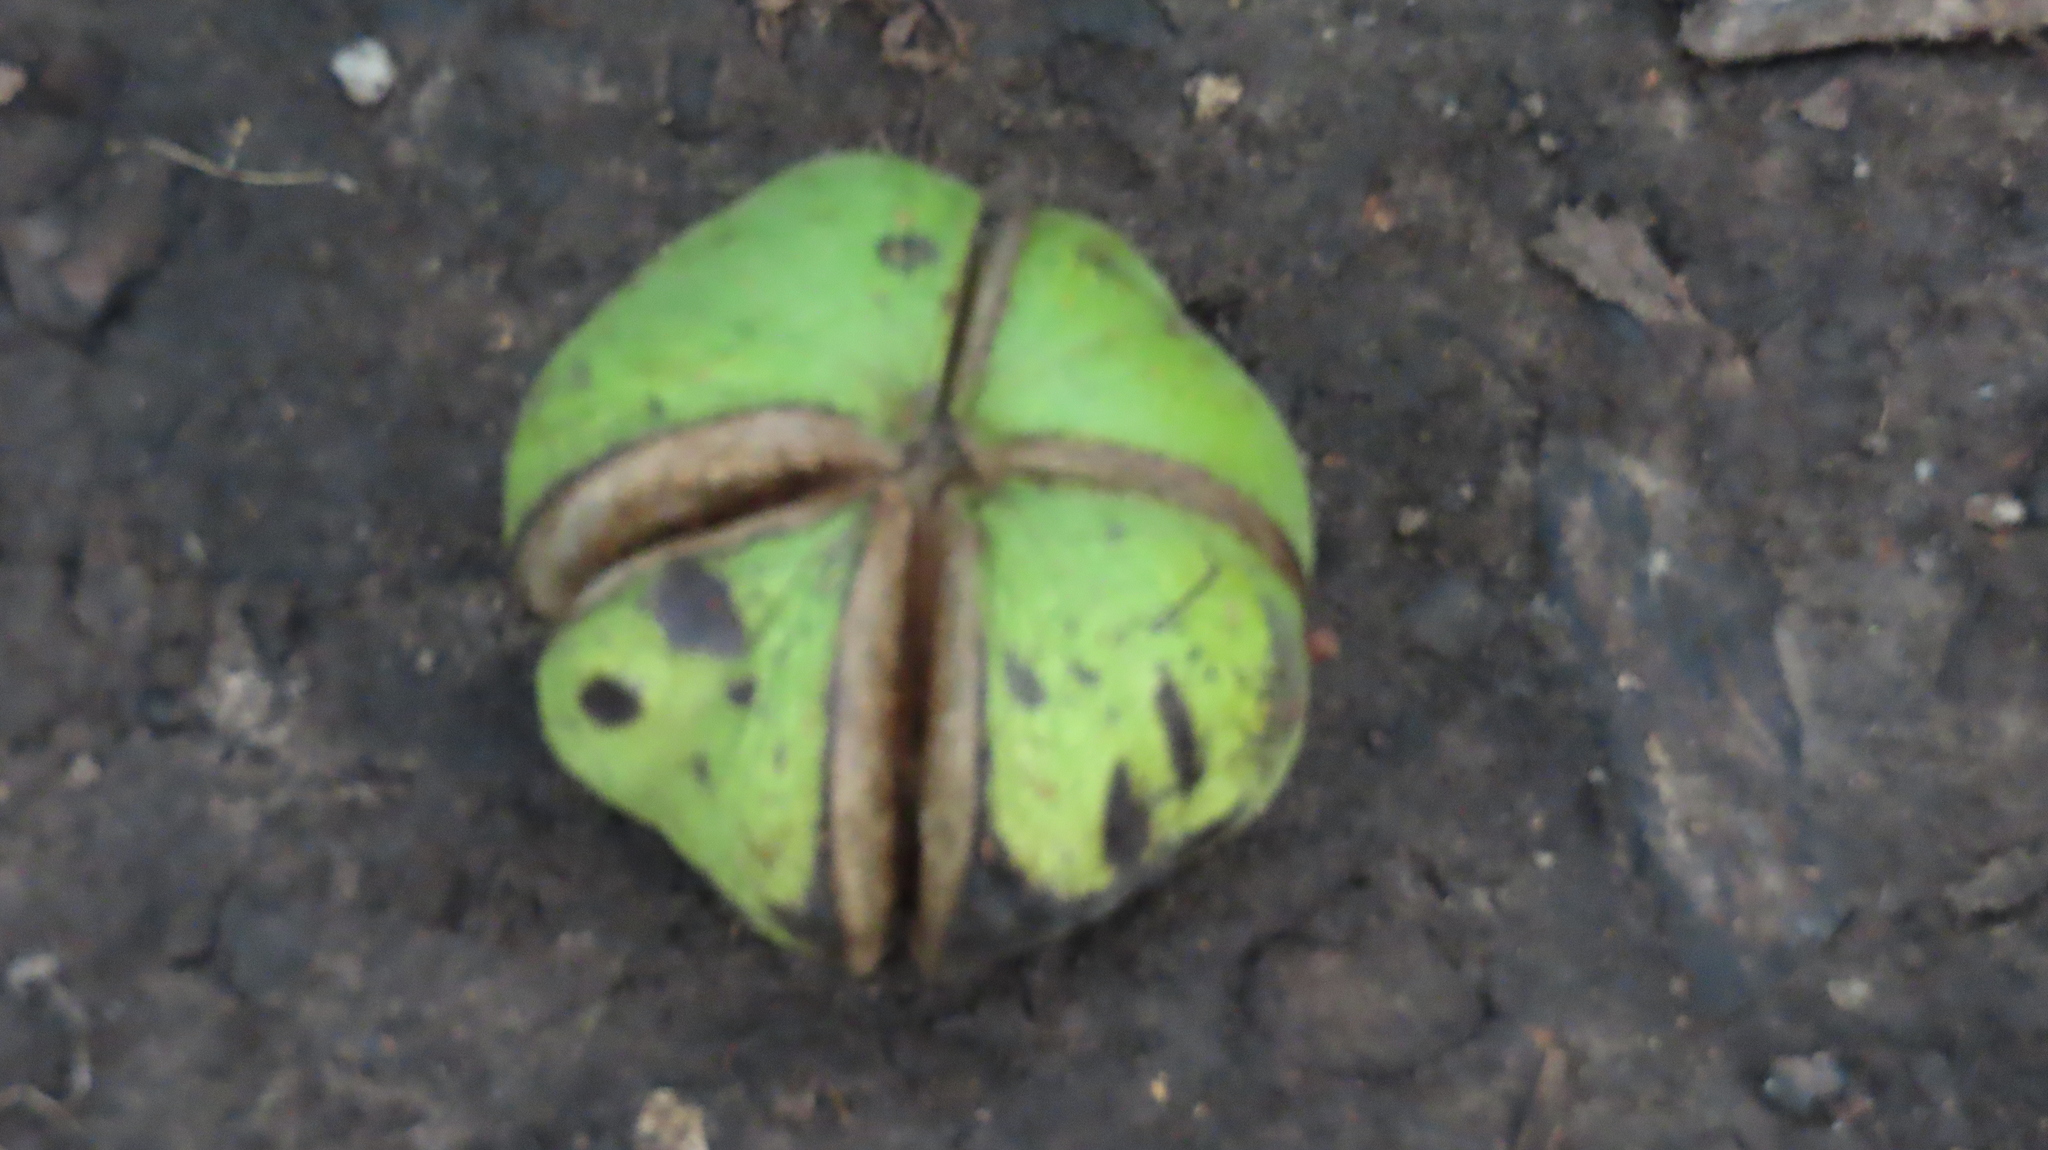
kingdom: Plantae
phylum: Tracheophyta
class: Magnoliopsida
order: Fagales
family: Juglandaceae
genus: Carya
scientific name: Carya ovata
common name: Shagbark hickory
